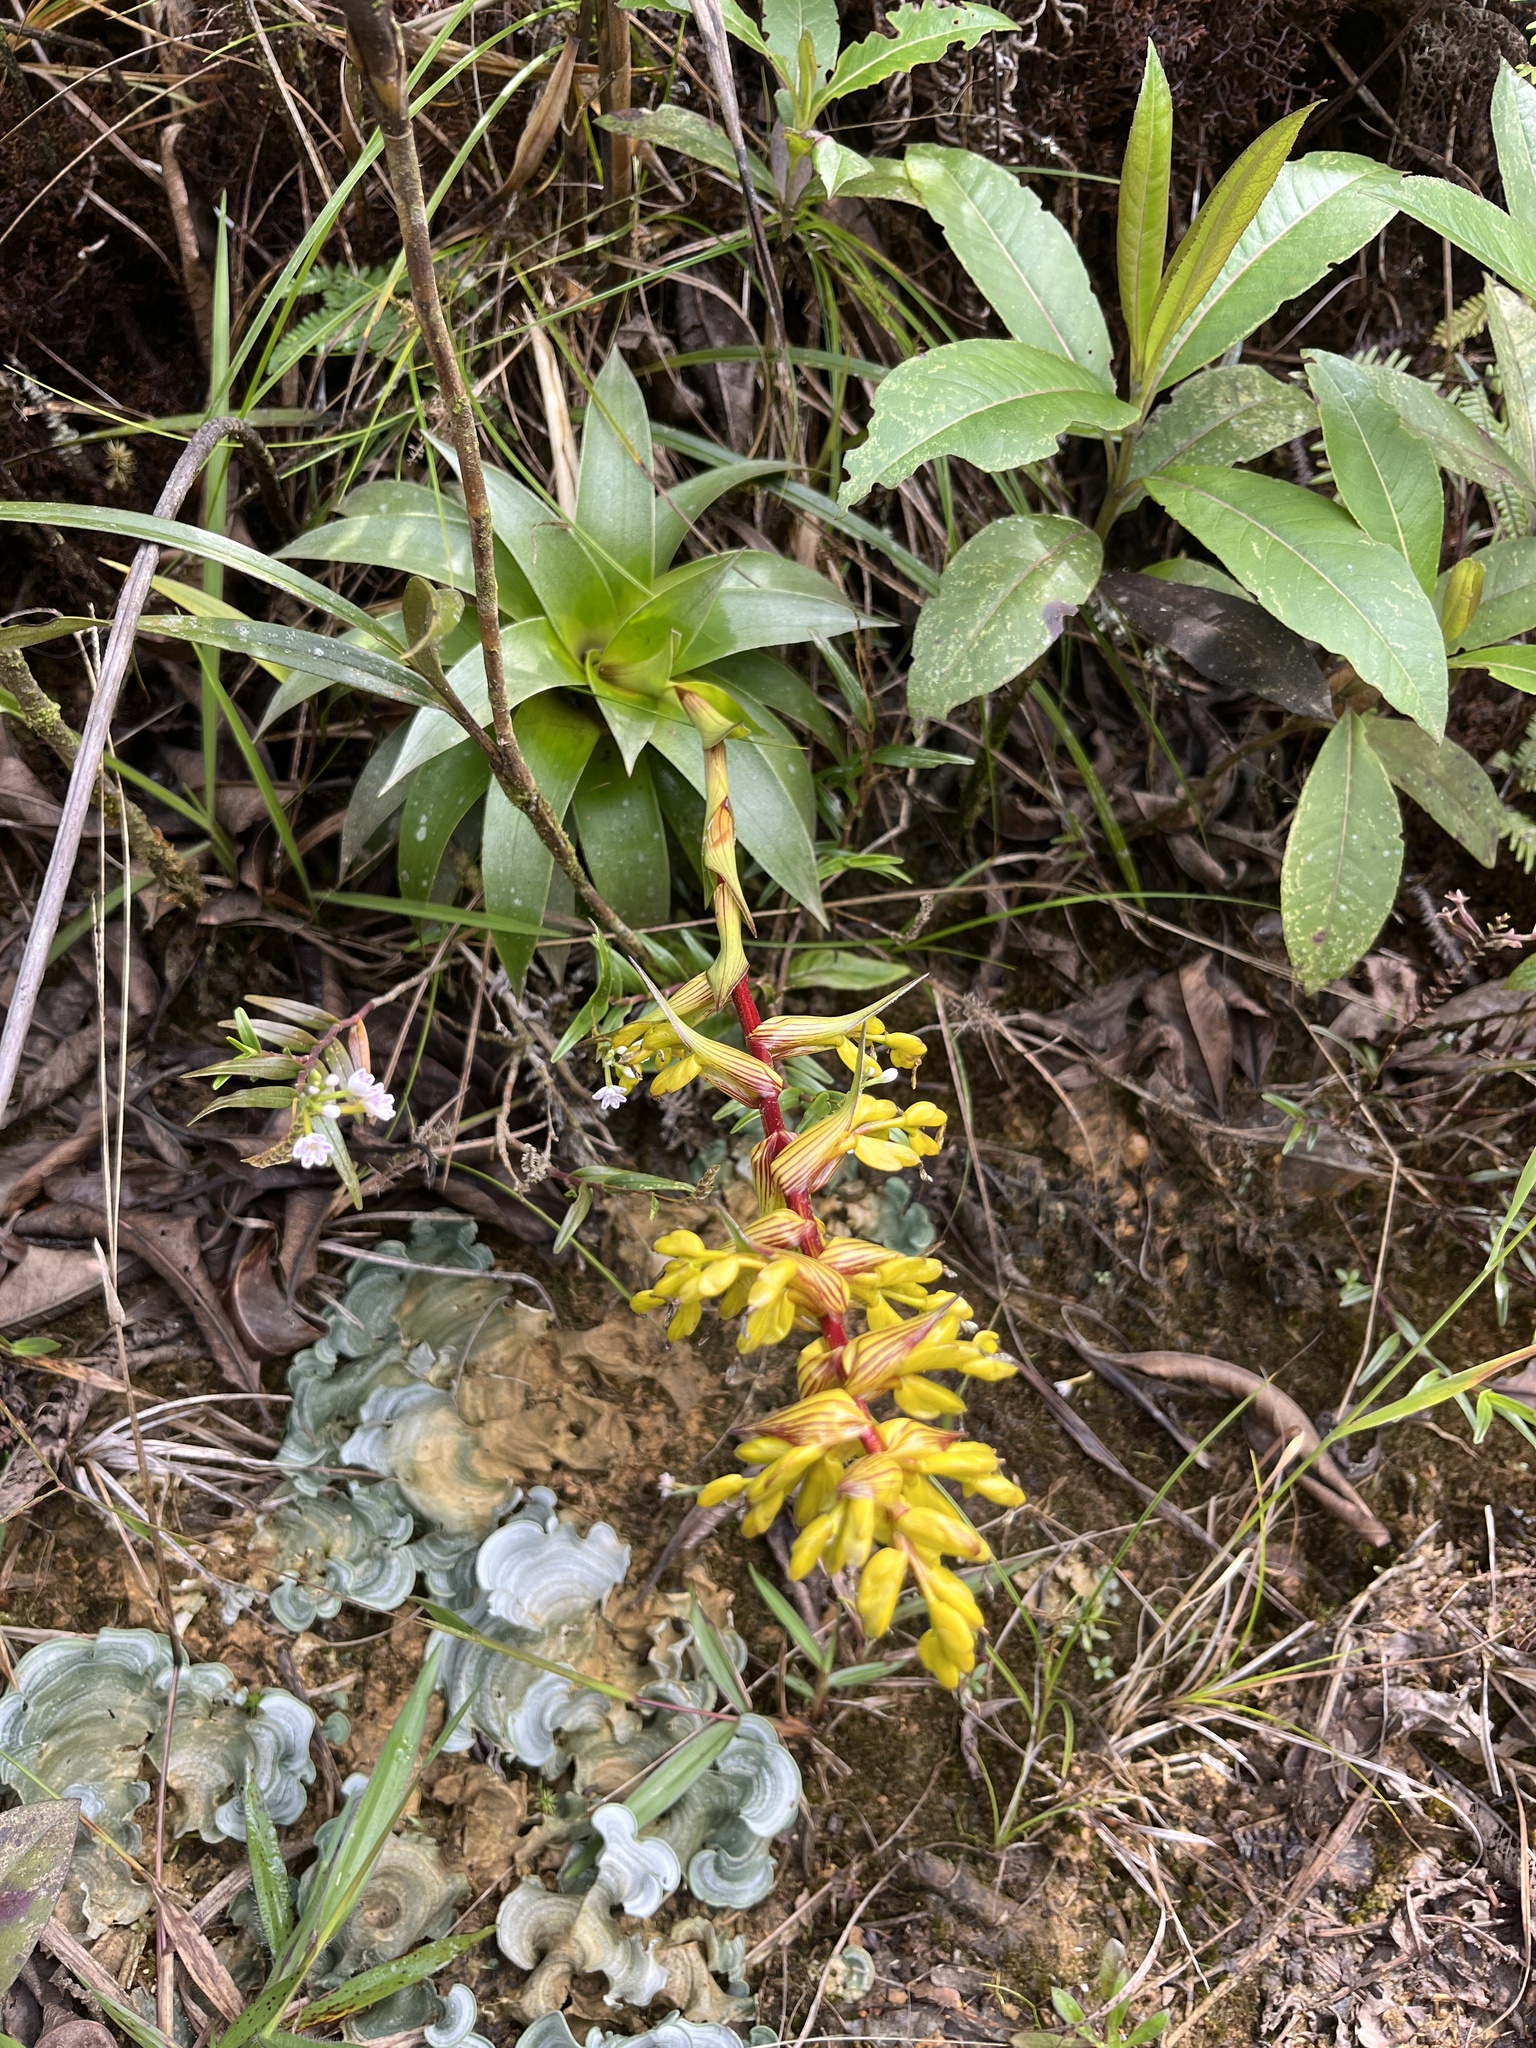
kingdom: Plantae
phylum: Tracheophyta
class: Liliopsida
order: Poales
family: Bromeliaceae
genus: Guzmania
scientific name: Guzmania gracilior
